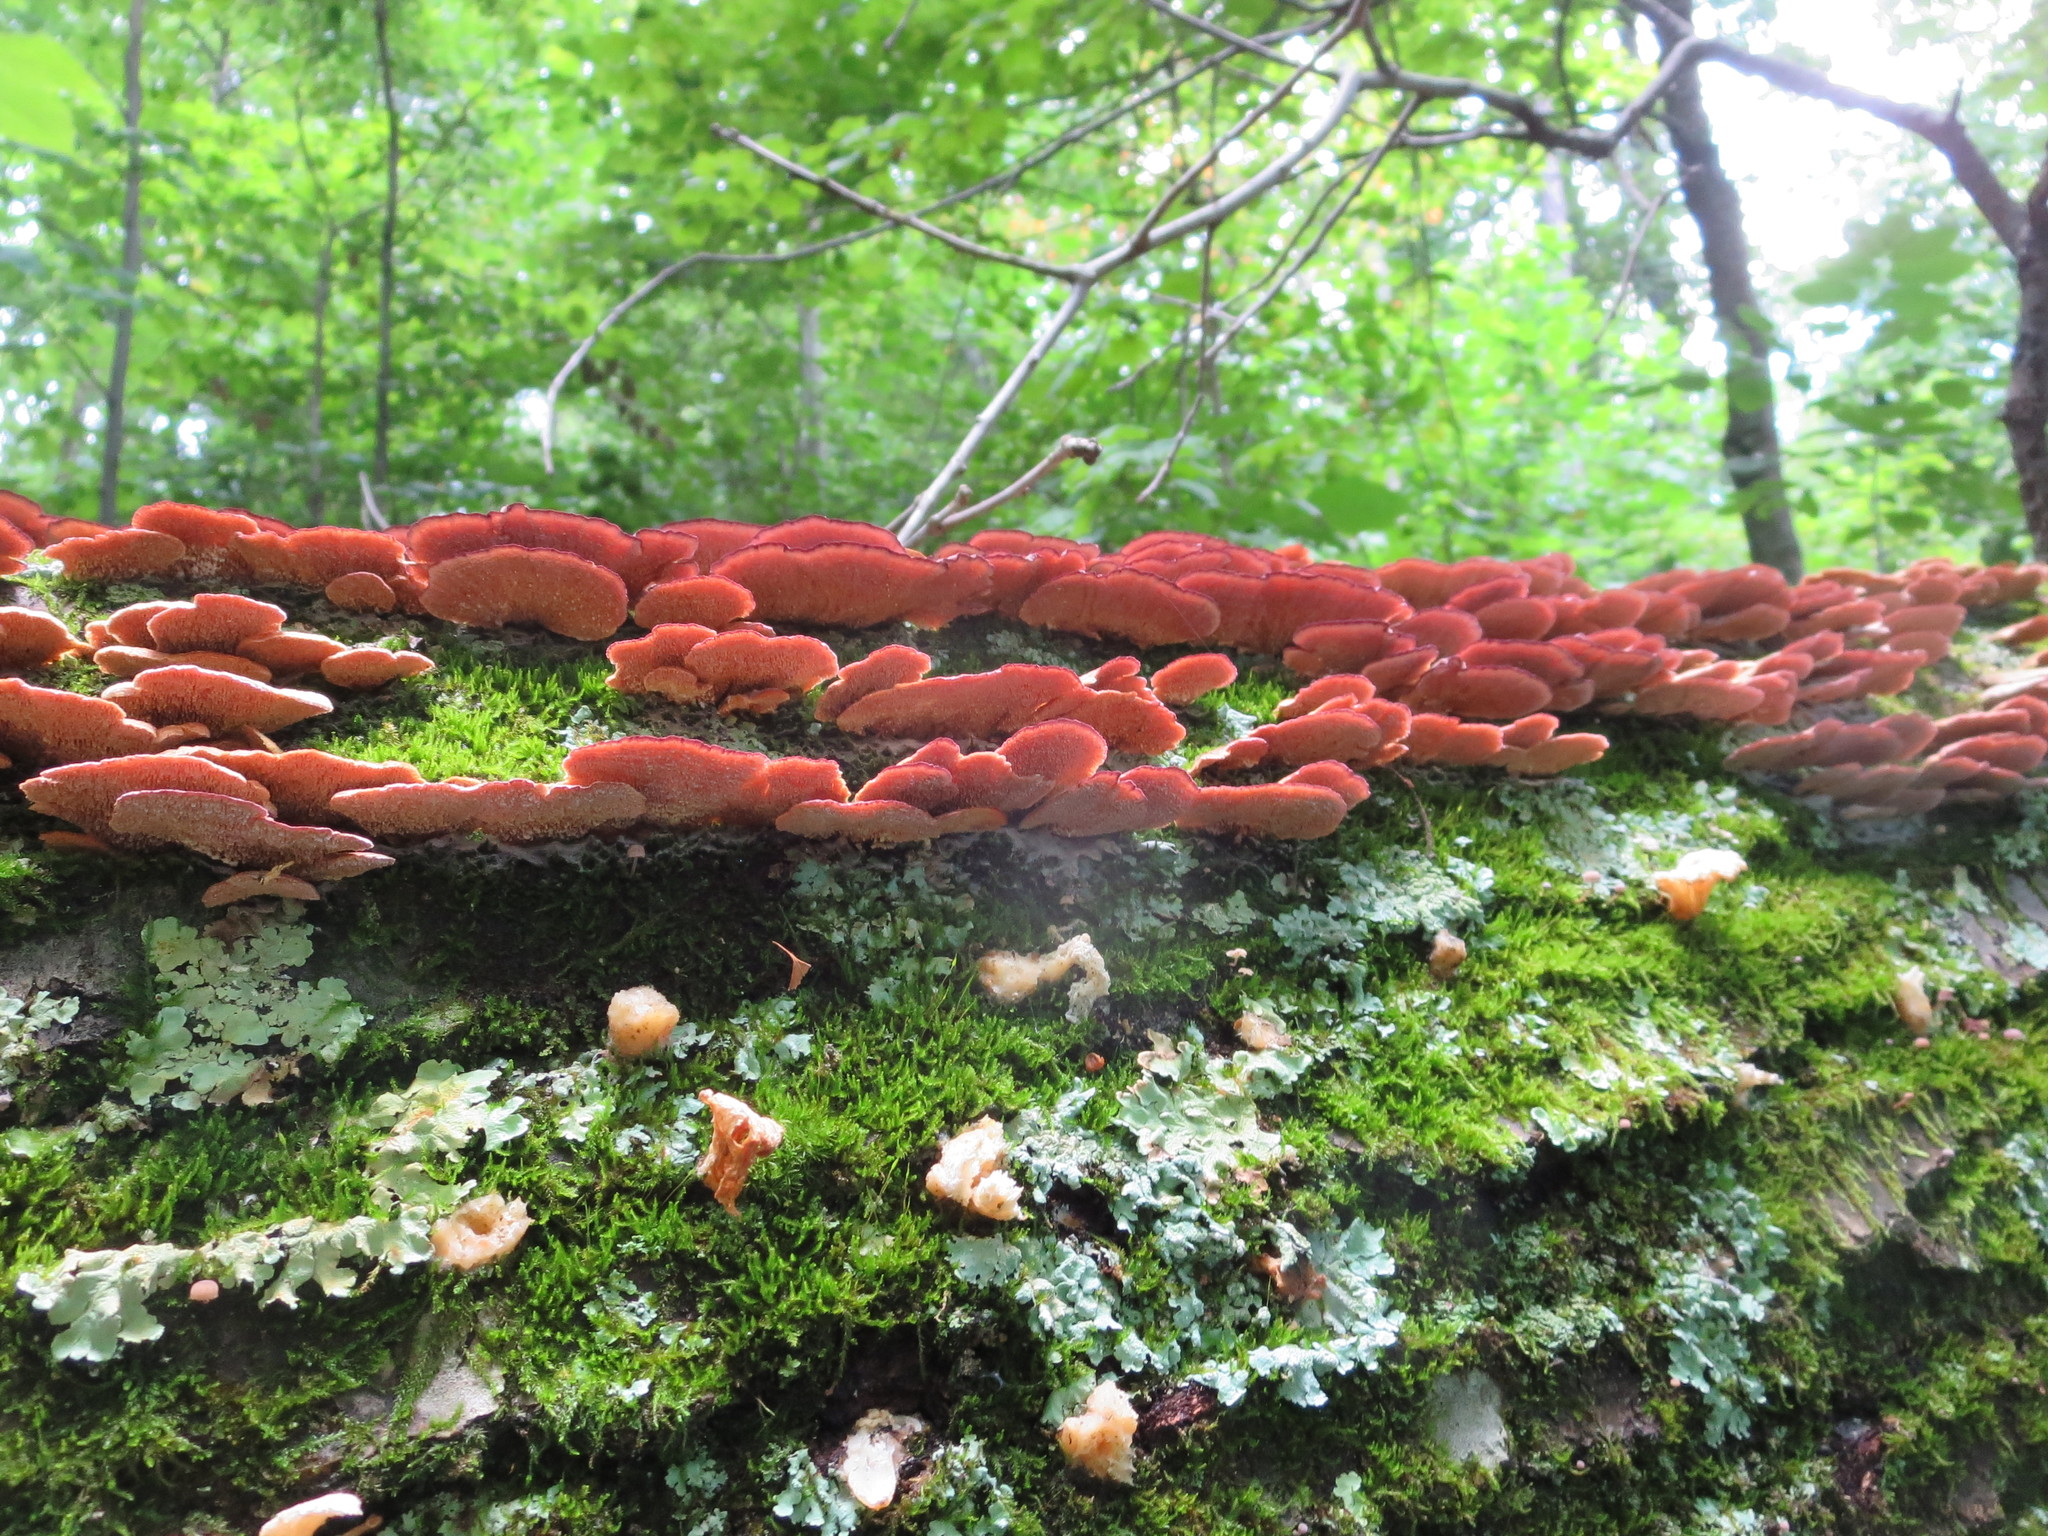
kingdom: Fungi
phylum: Basidiomycota
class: Agaricomycetes
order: Hymenochaetales
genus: Trichaptum
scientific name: Trichaptum abietinum
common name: Purplepore bracket
